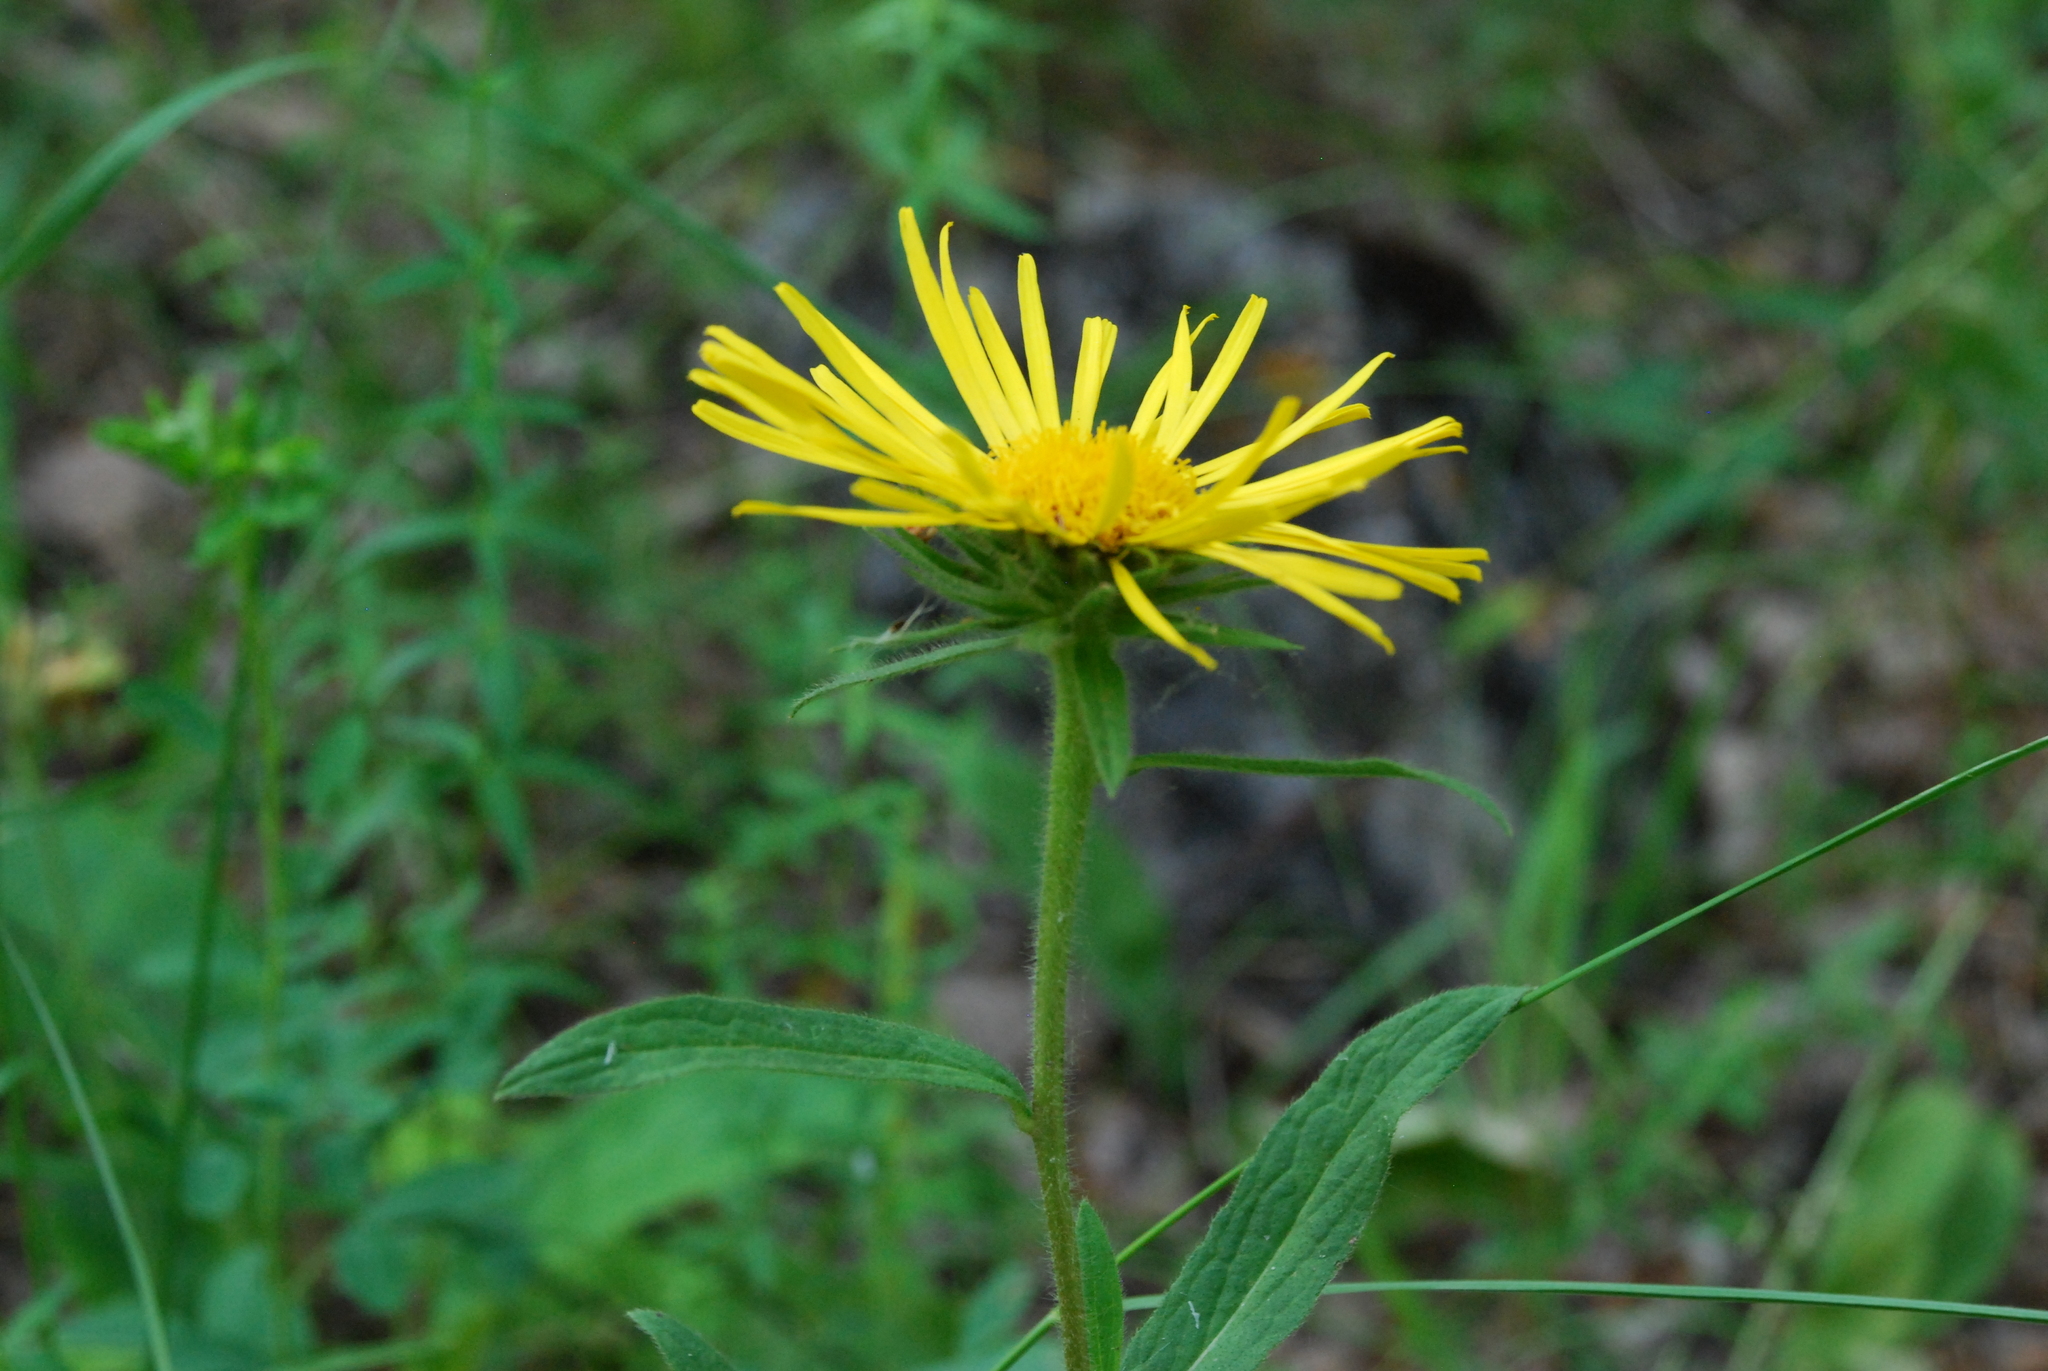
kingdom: Plantae
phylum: Tracheophyta
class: Magnoliopsida
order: Asterales
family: Asteraceae
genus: Pentanema
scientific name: Pentanema hirtum
